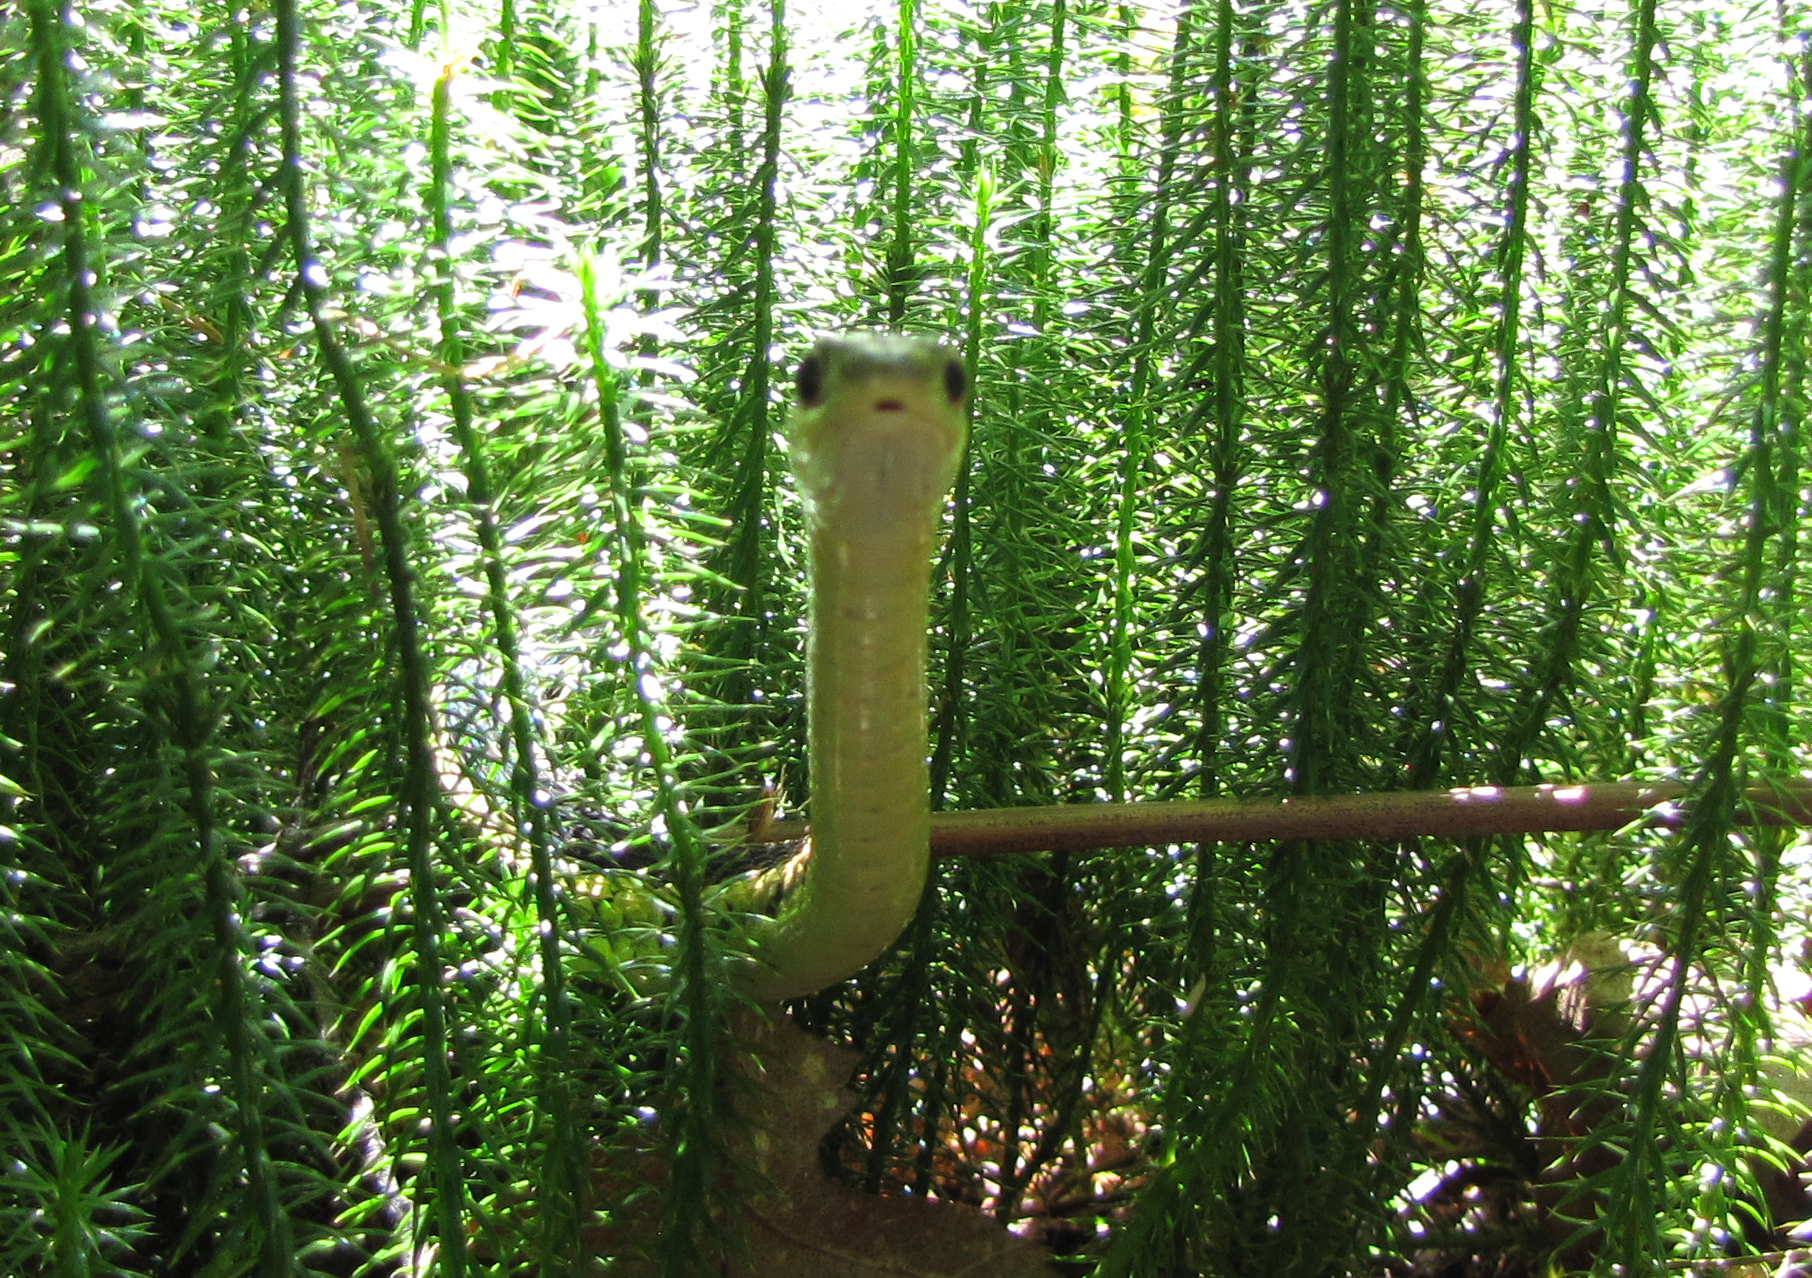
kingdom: Animalia
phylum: Chordata
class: Squamata
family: Colubridae
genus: Thamnophis
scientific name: Thamnophis sirtalis
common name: Common garter snake
